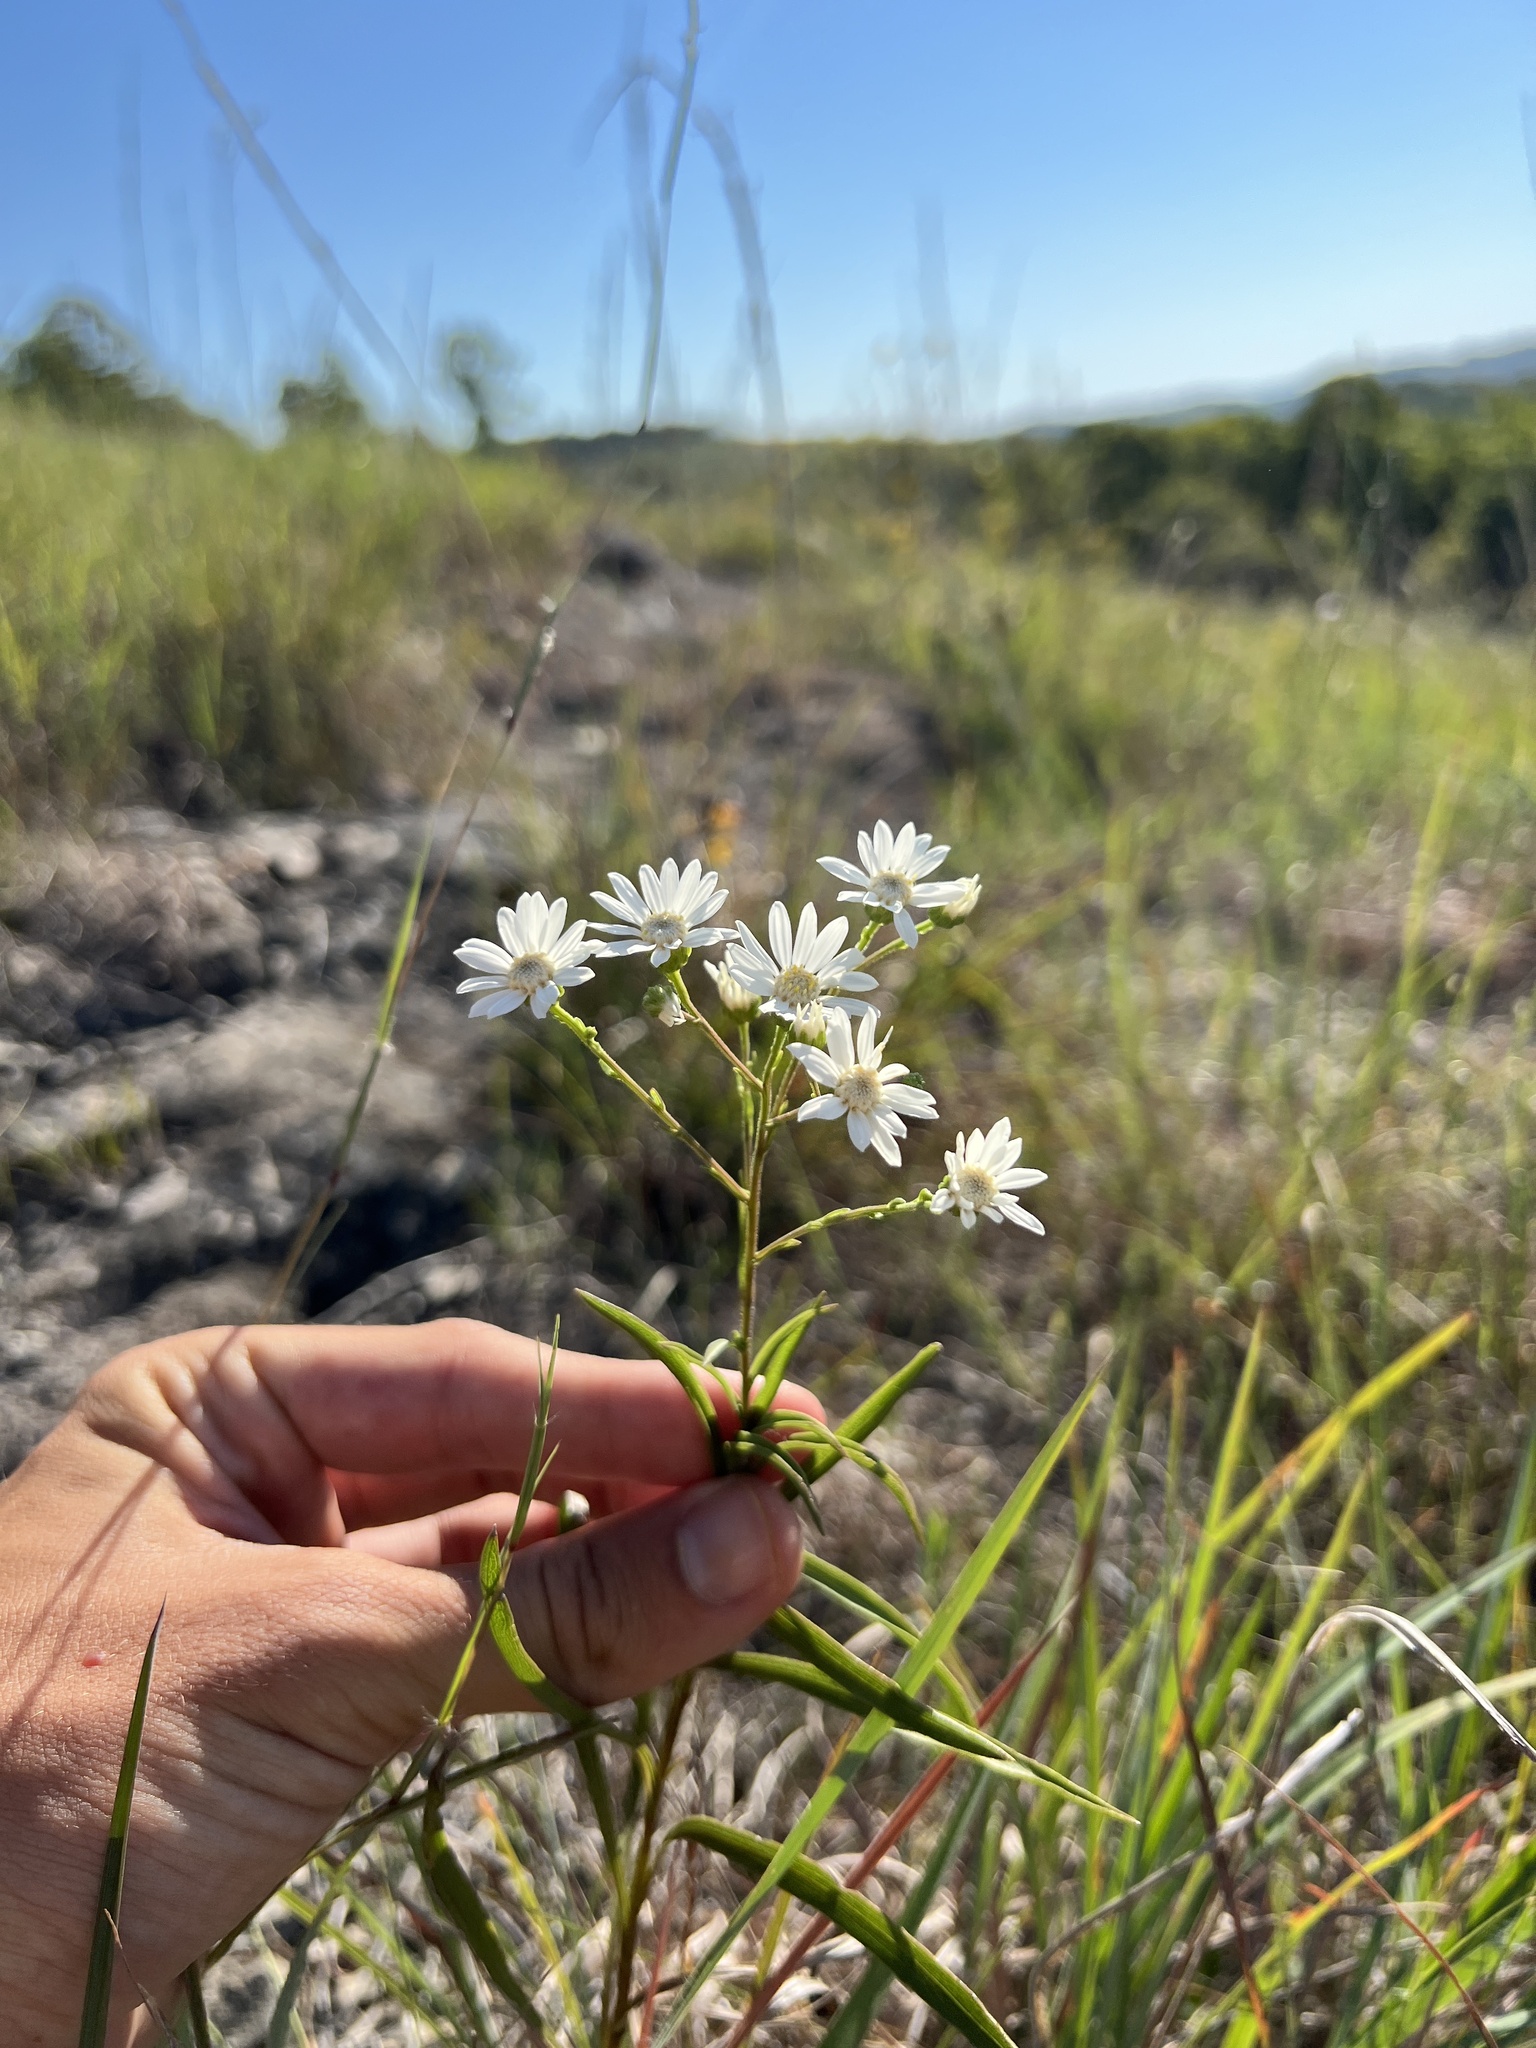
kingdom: Plantae
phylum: Tracheophyta
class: Magnoliopsida
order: Asterales
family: Asteraceae
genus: Solidago
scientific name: Solidago ptarmicoides
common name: White flat-top goldenrod
